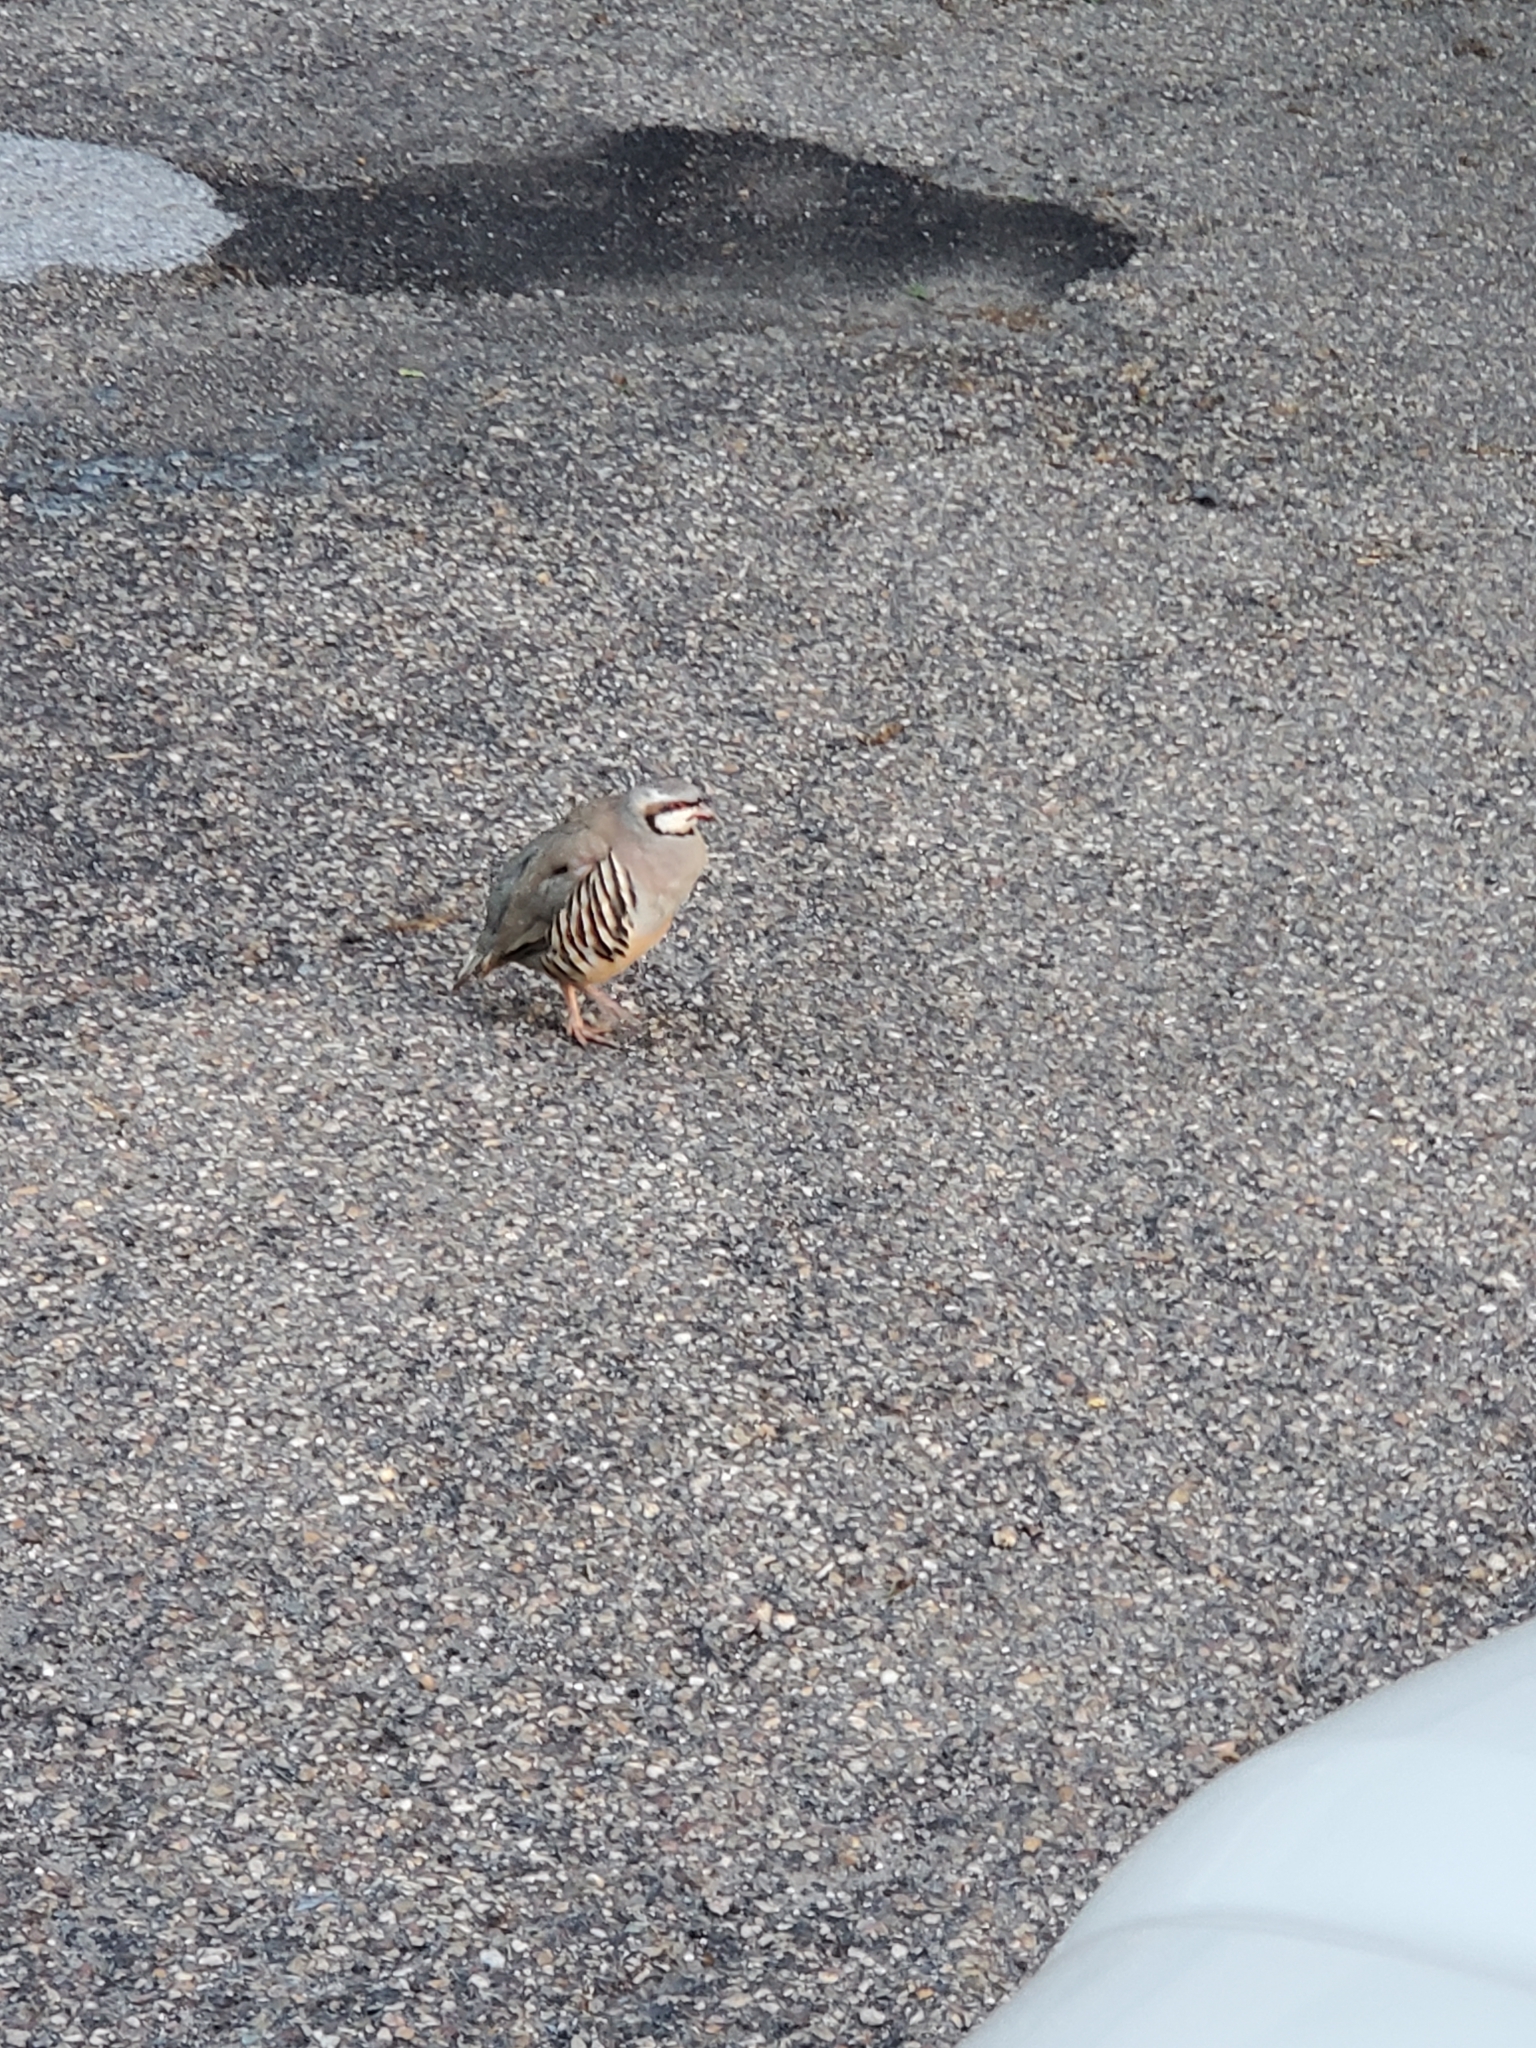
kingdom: Animalia
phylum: Chordata
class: Aves
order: Galliformes
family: Phasianidae
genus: Alectoris
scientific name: Alectoris chukar
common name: Chukar
